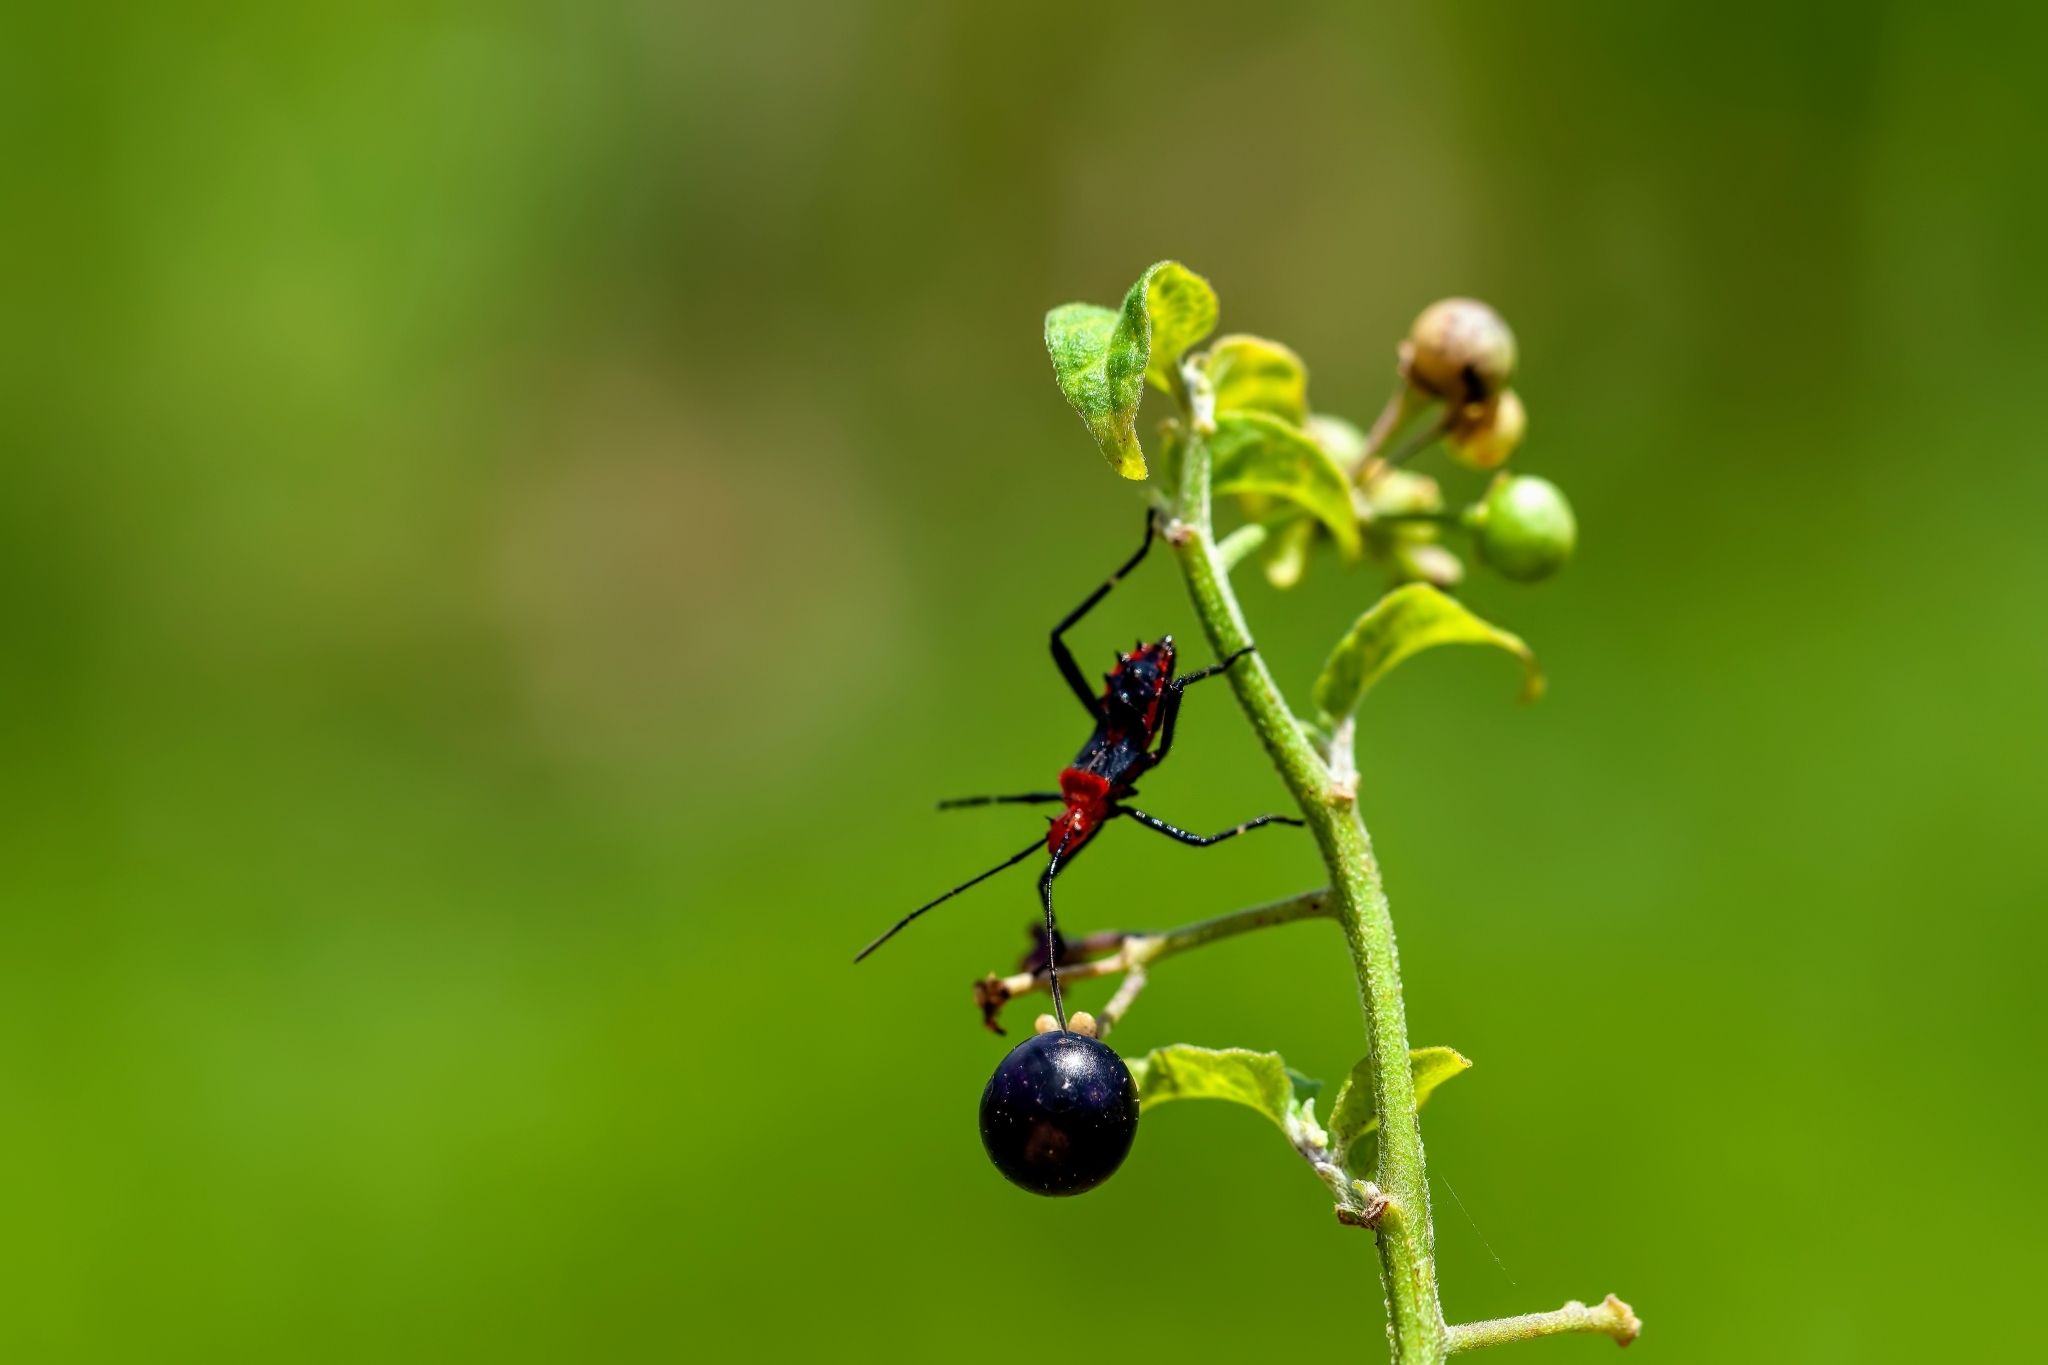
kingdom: Animalia
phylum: Arthropoda
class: Insecta
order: Hemiptera
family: Coreidae
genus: Phthiacnemia
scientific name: Phthiacnemia picta
